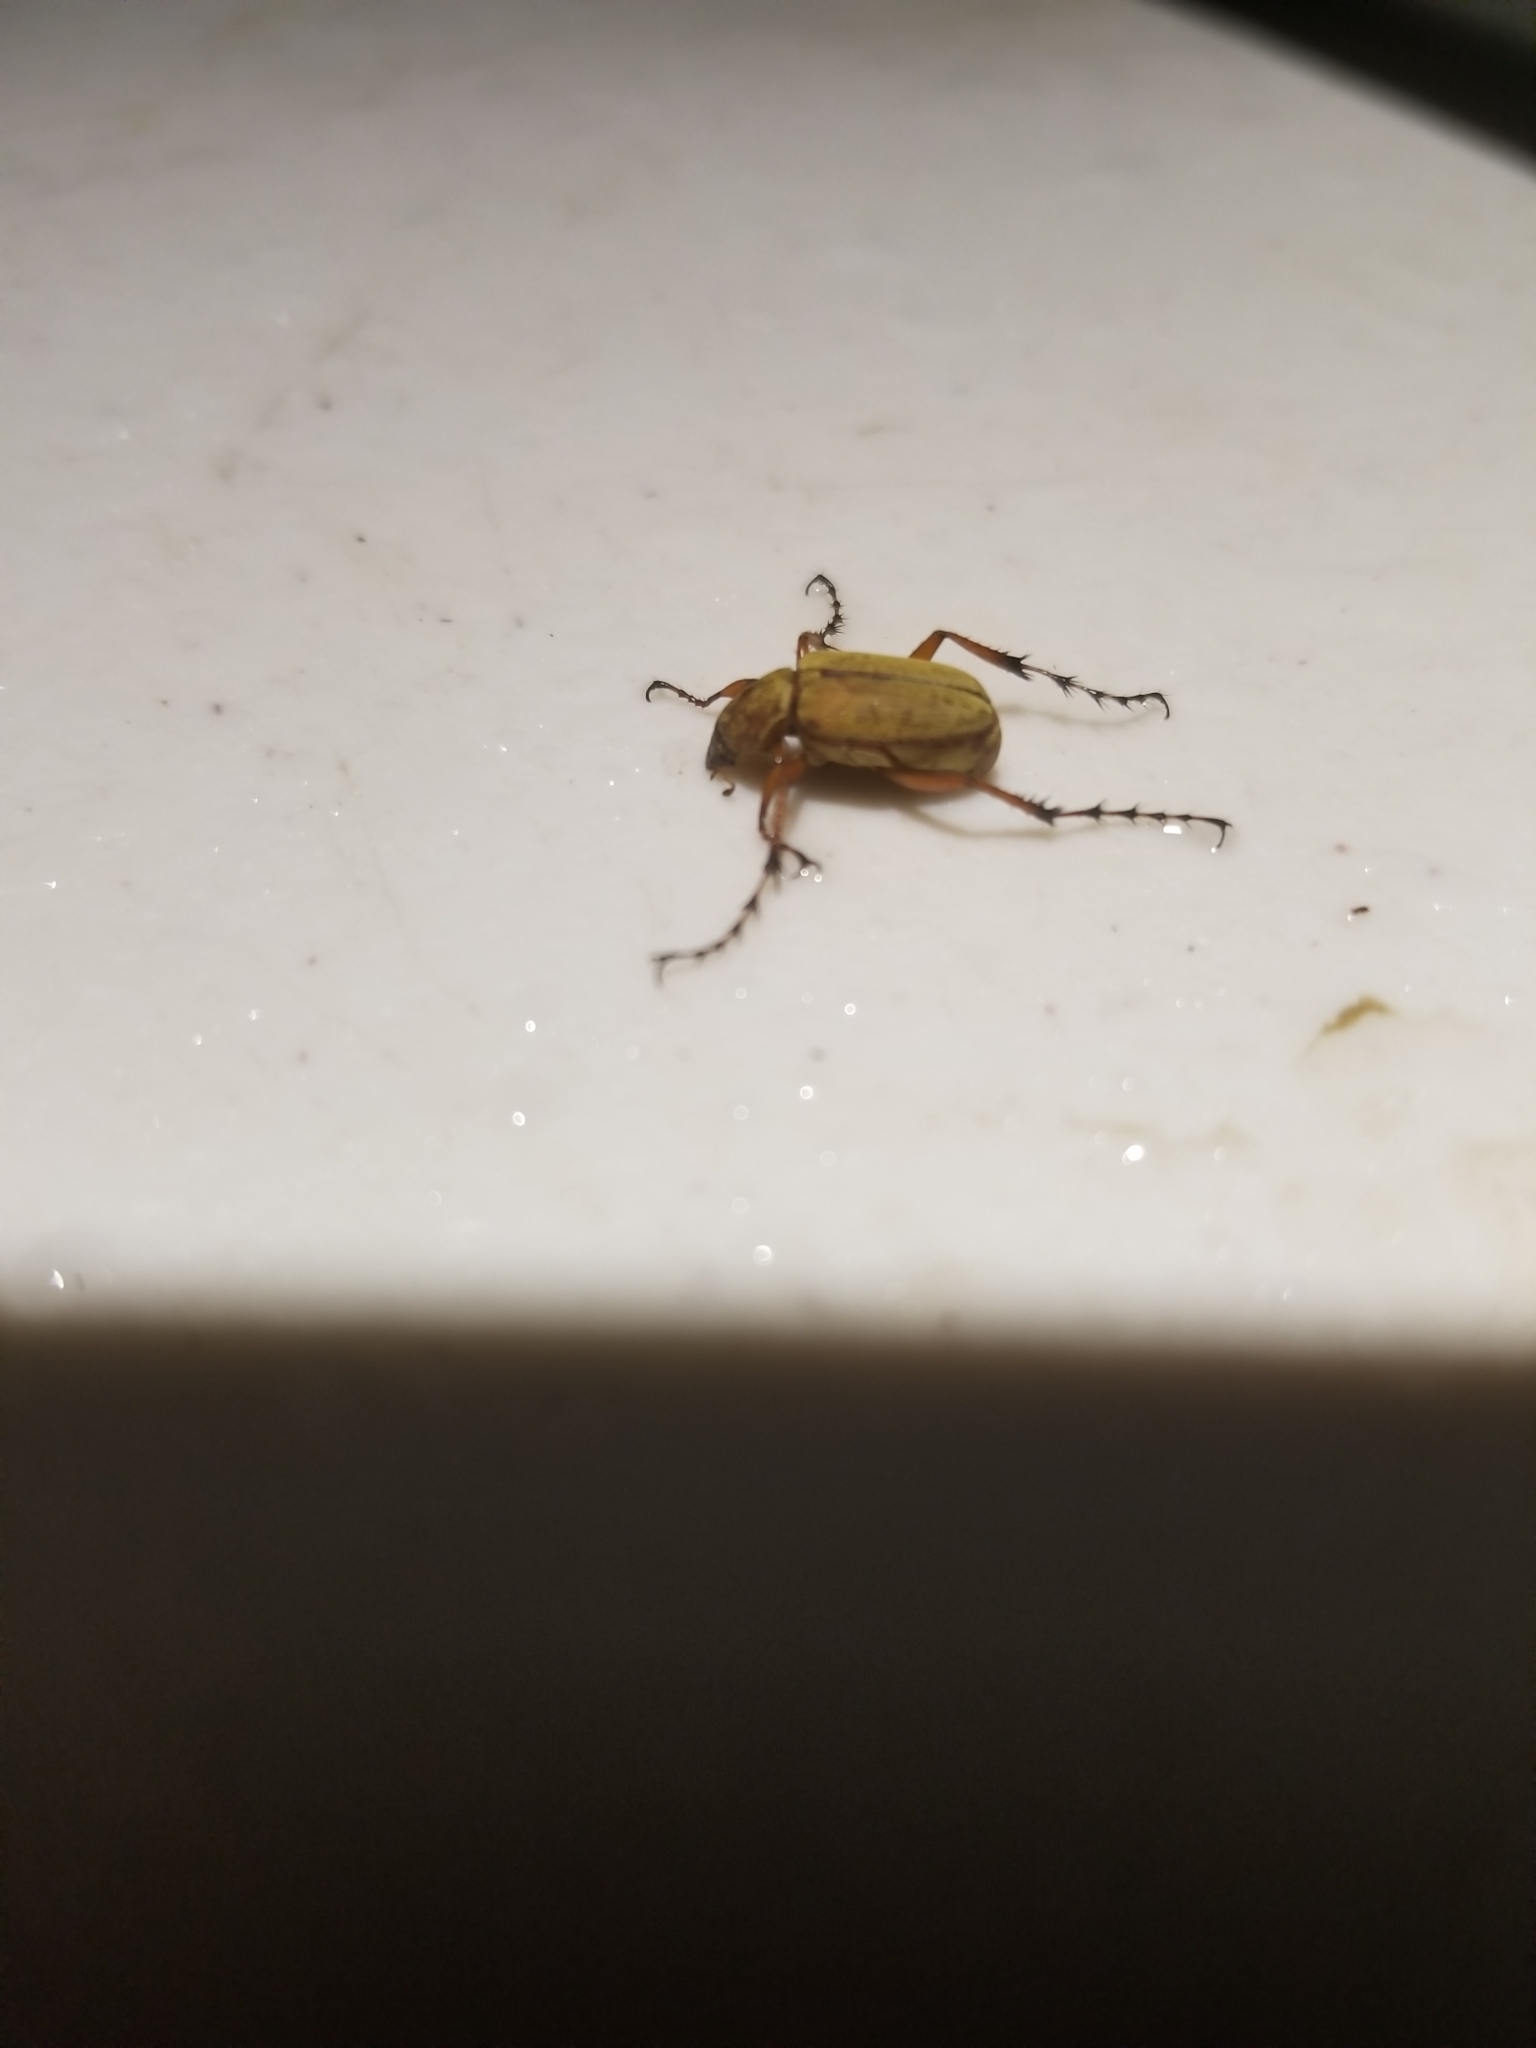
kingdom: Animalia
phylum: Arthropoda
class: Insecta
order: Coleoptera
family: Scarabaeidae
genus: Macrodactylus
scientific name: Macrodactylus subspinosus
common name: American rose chafer
